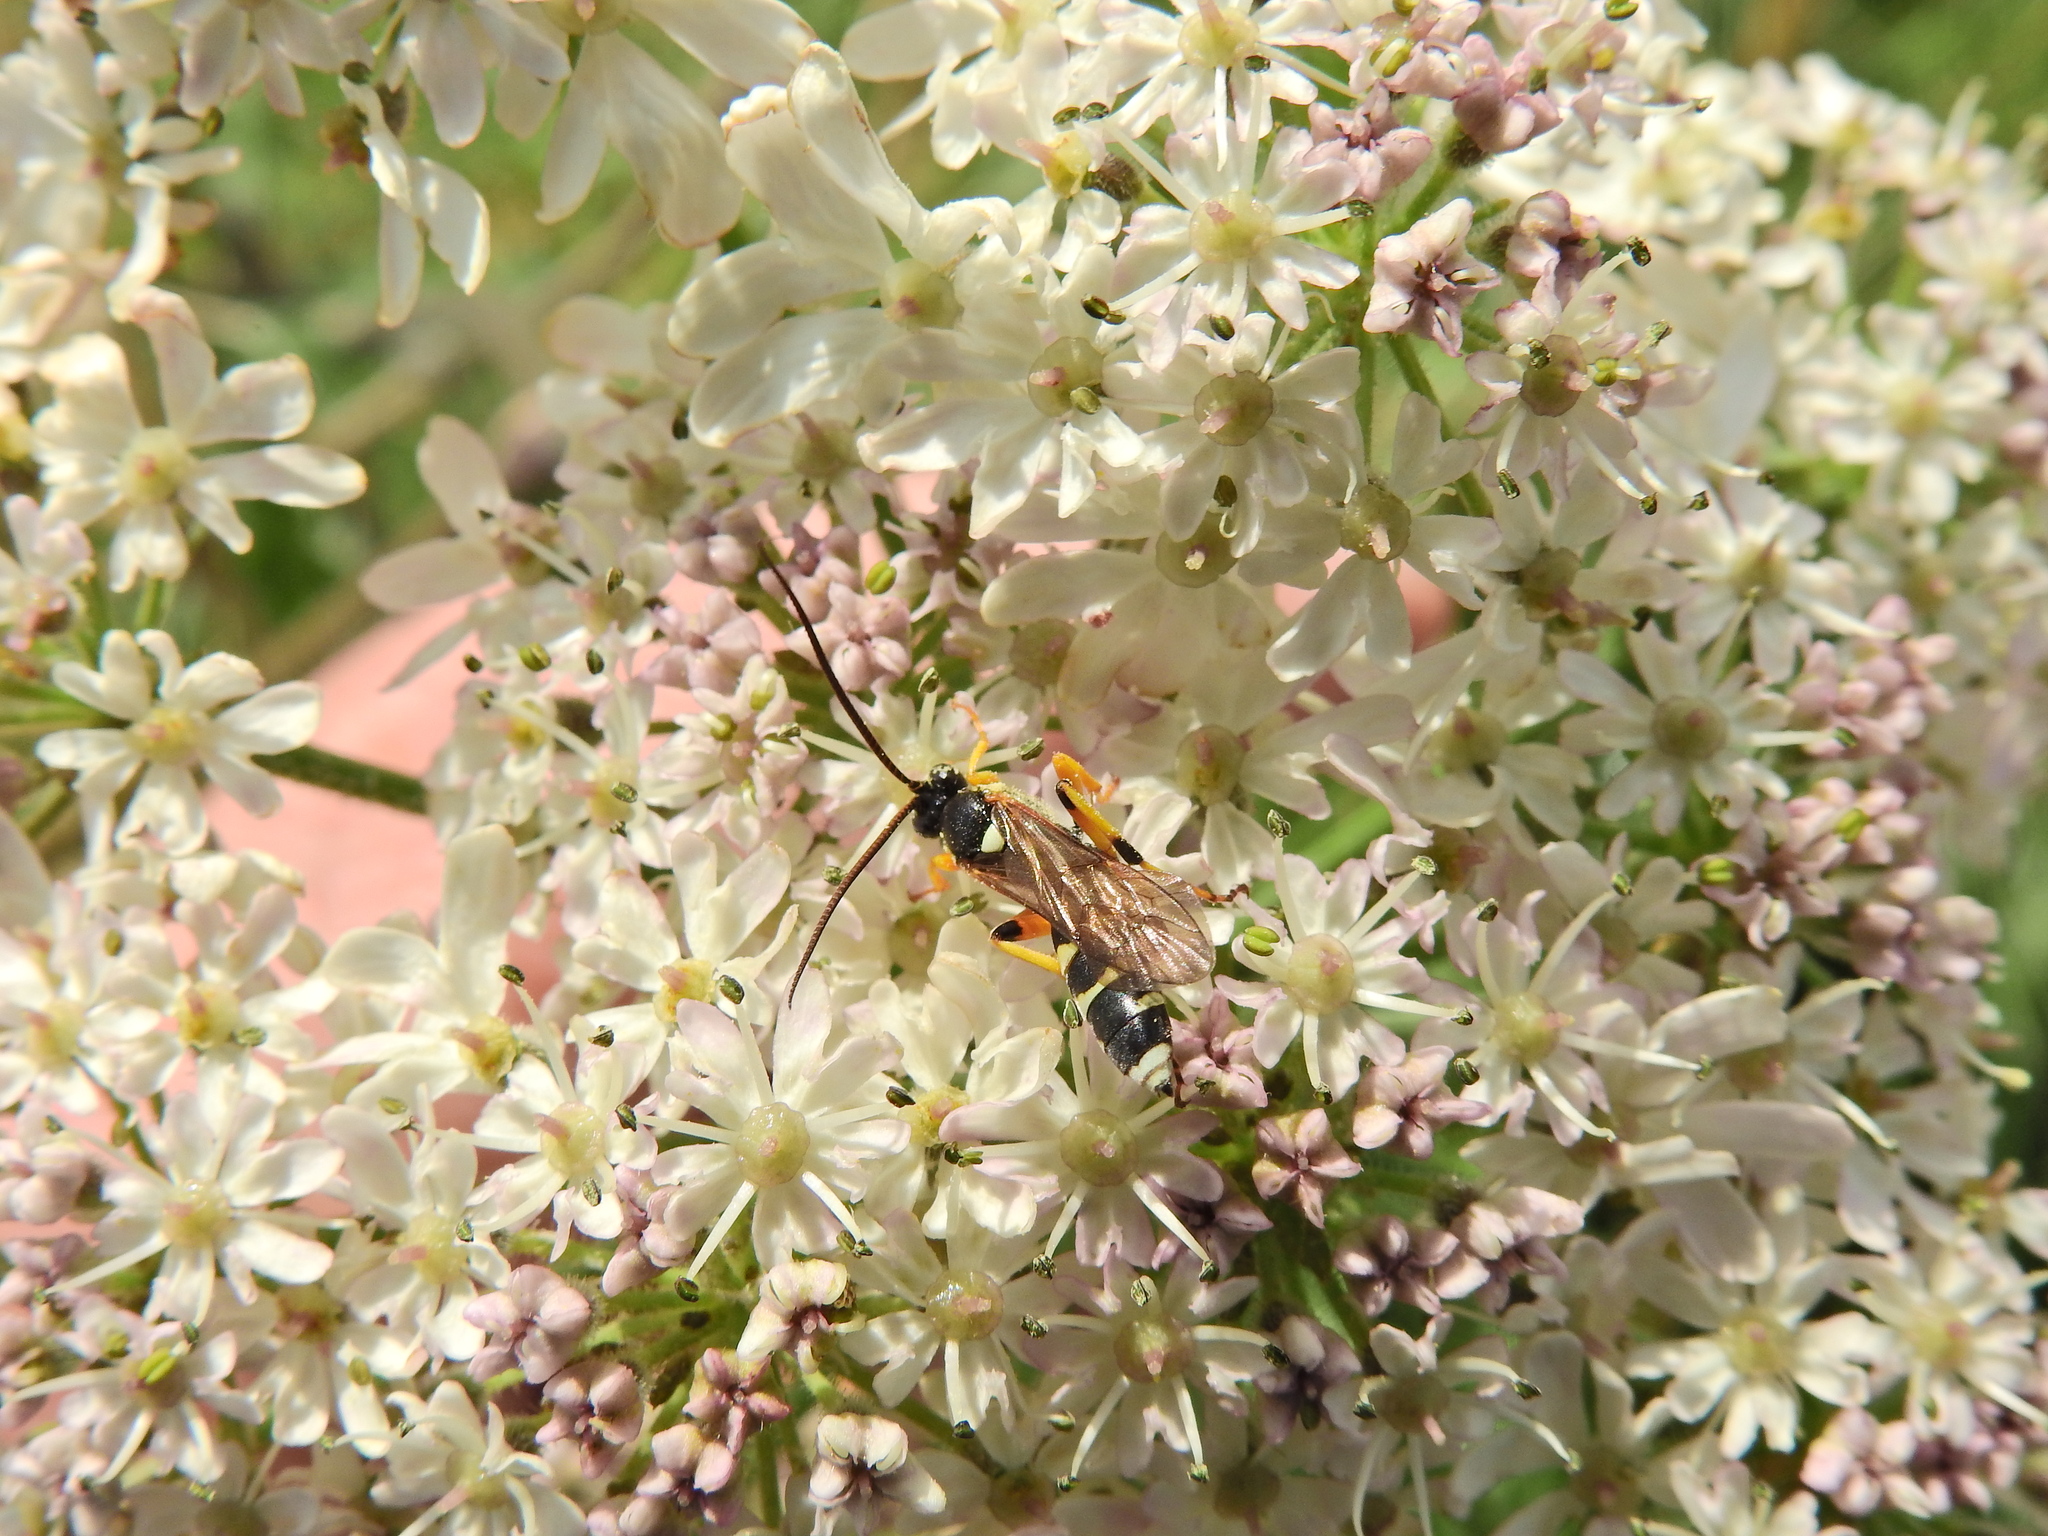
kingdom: Animalia
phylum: Arthropoda
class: Insecta
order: Hymenoptera
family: Ichneumonidae
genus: Ichneumon
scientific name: Ichneumon sarcitorius
